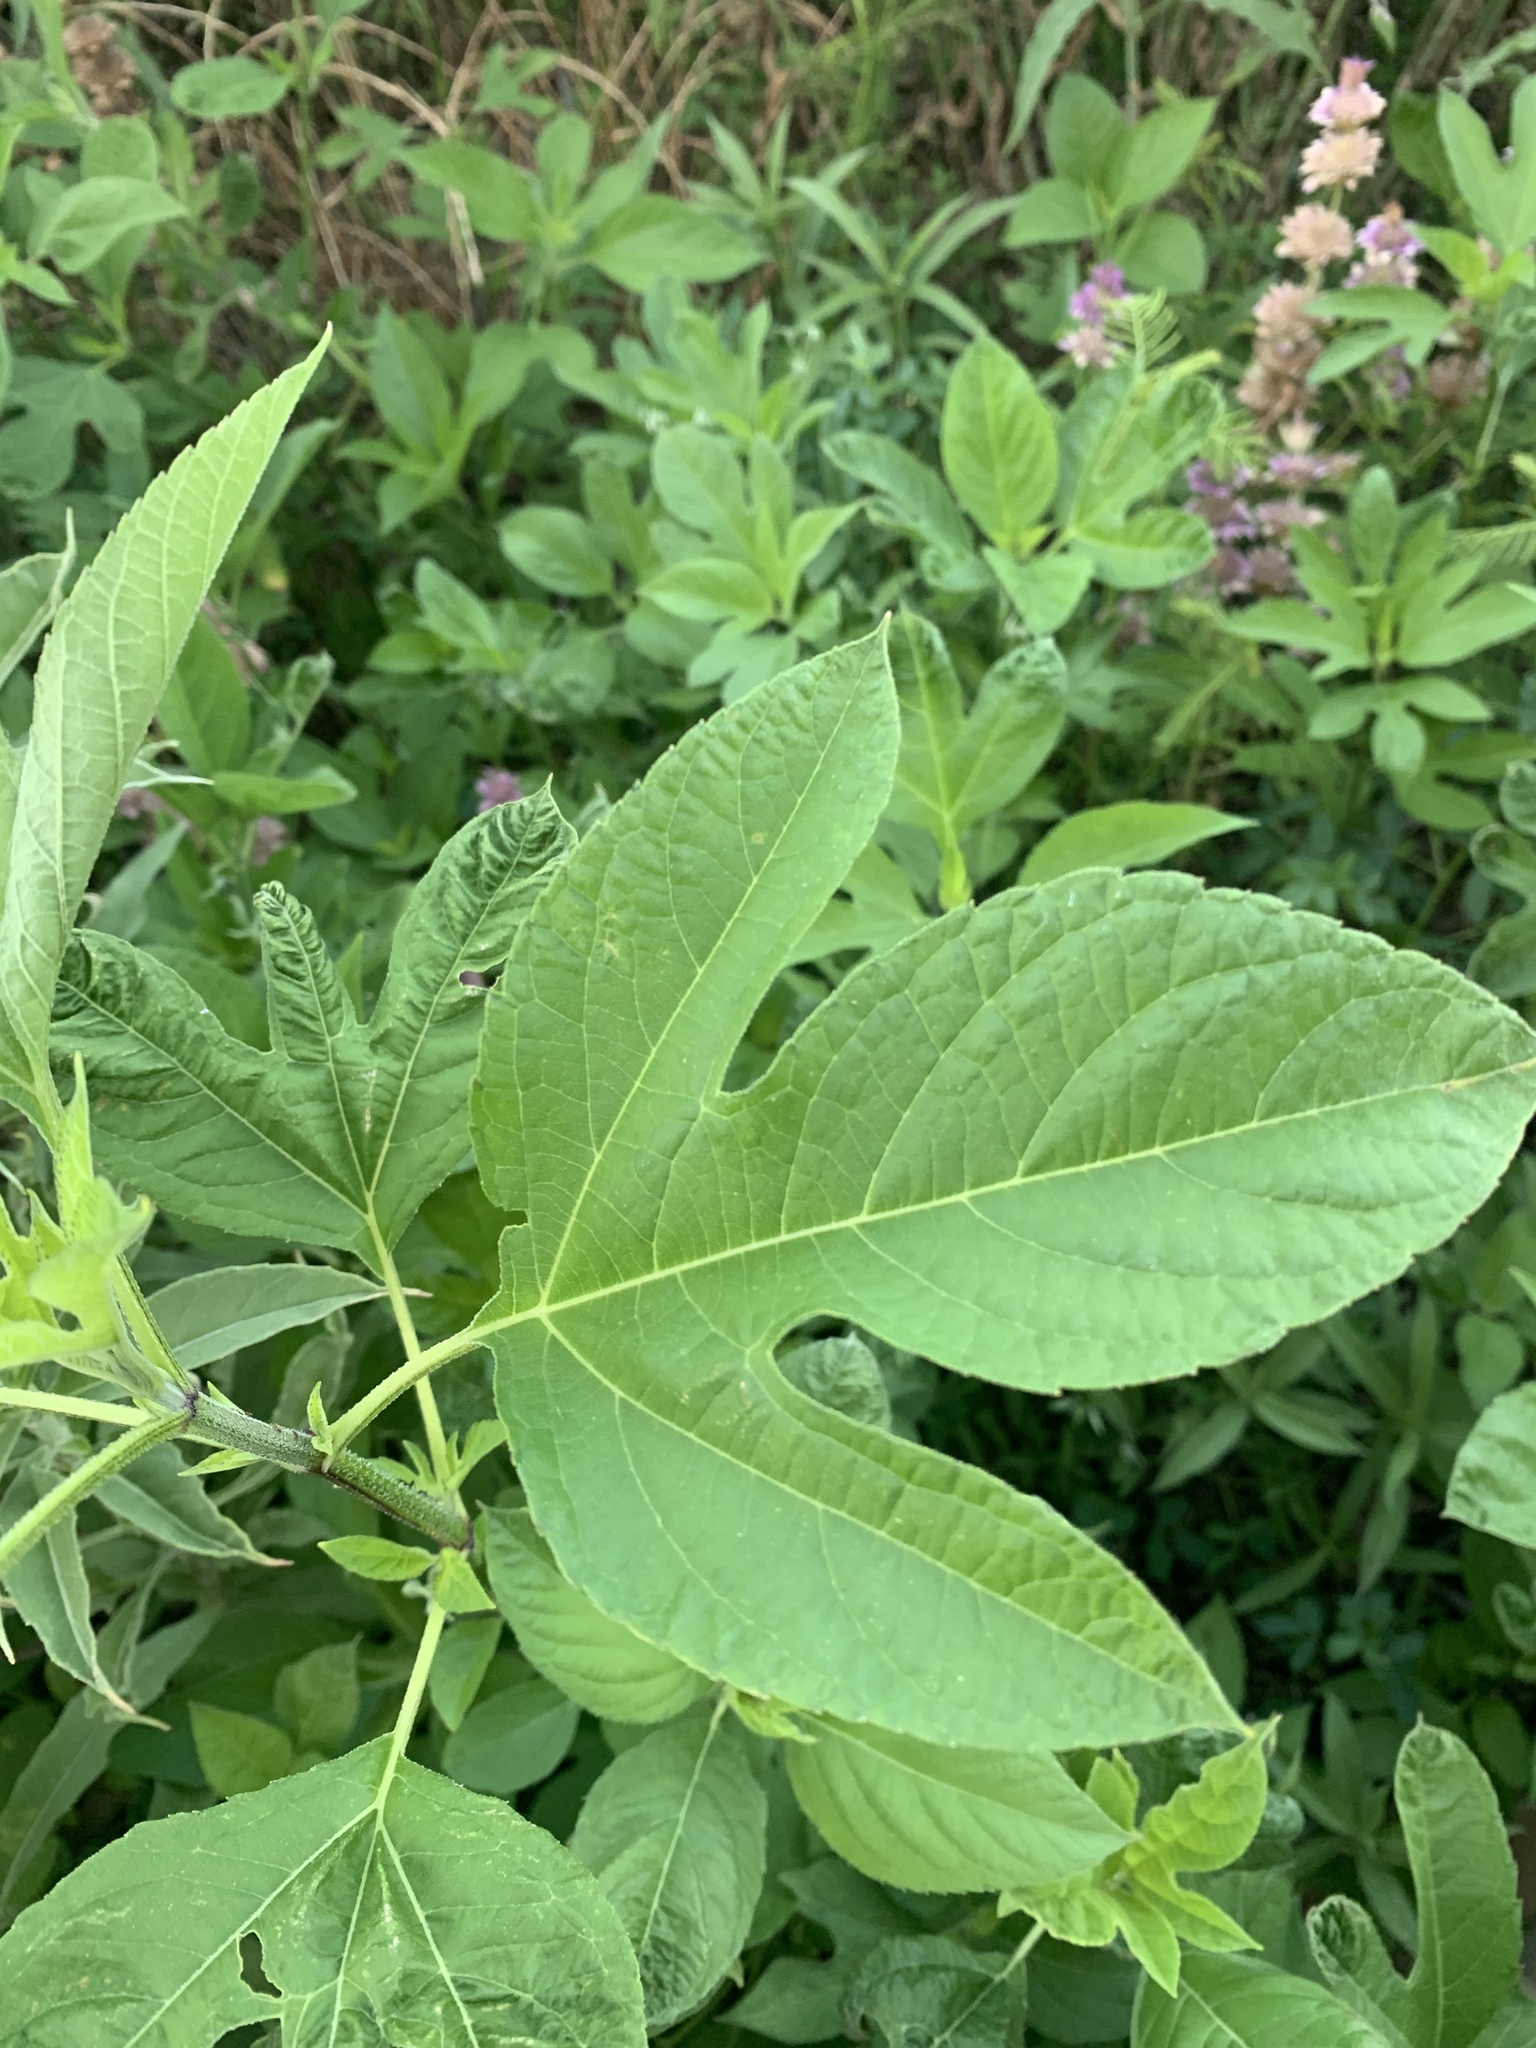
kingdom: Plantae
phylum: Tracheophyta
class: Magnoliopsida
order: Asterales
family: Asteraceae
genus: Ambrosia
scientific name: Ambrosia trifida
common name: Giant ragweed
